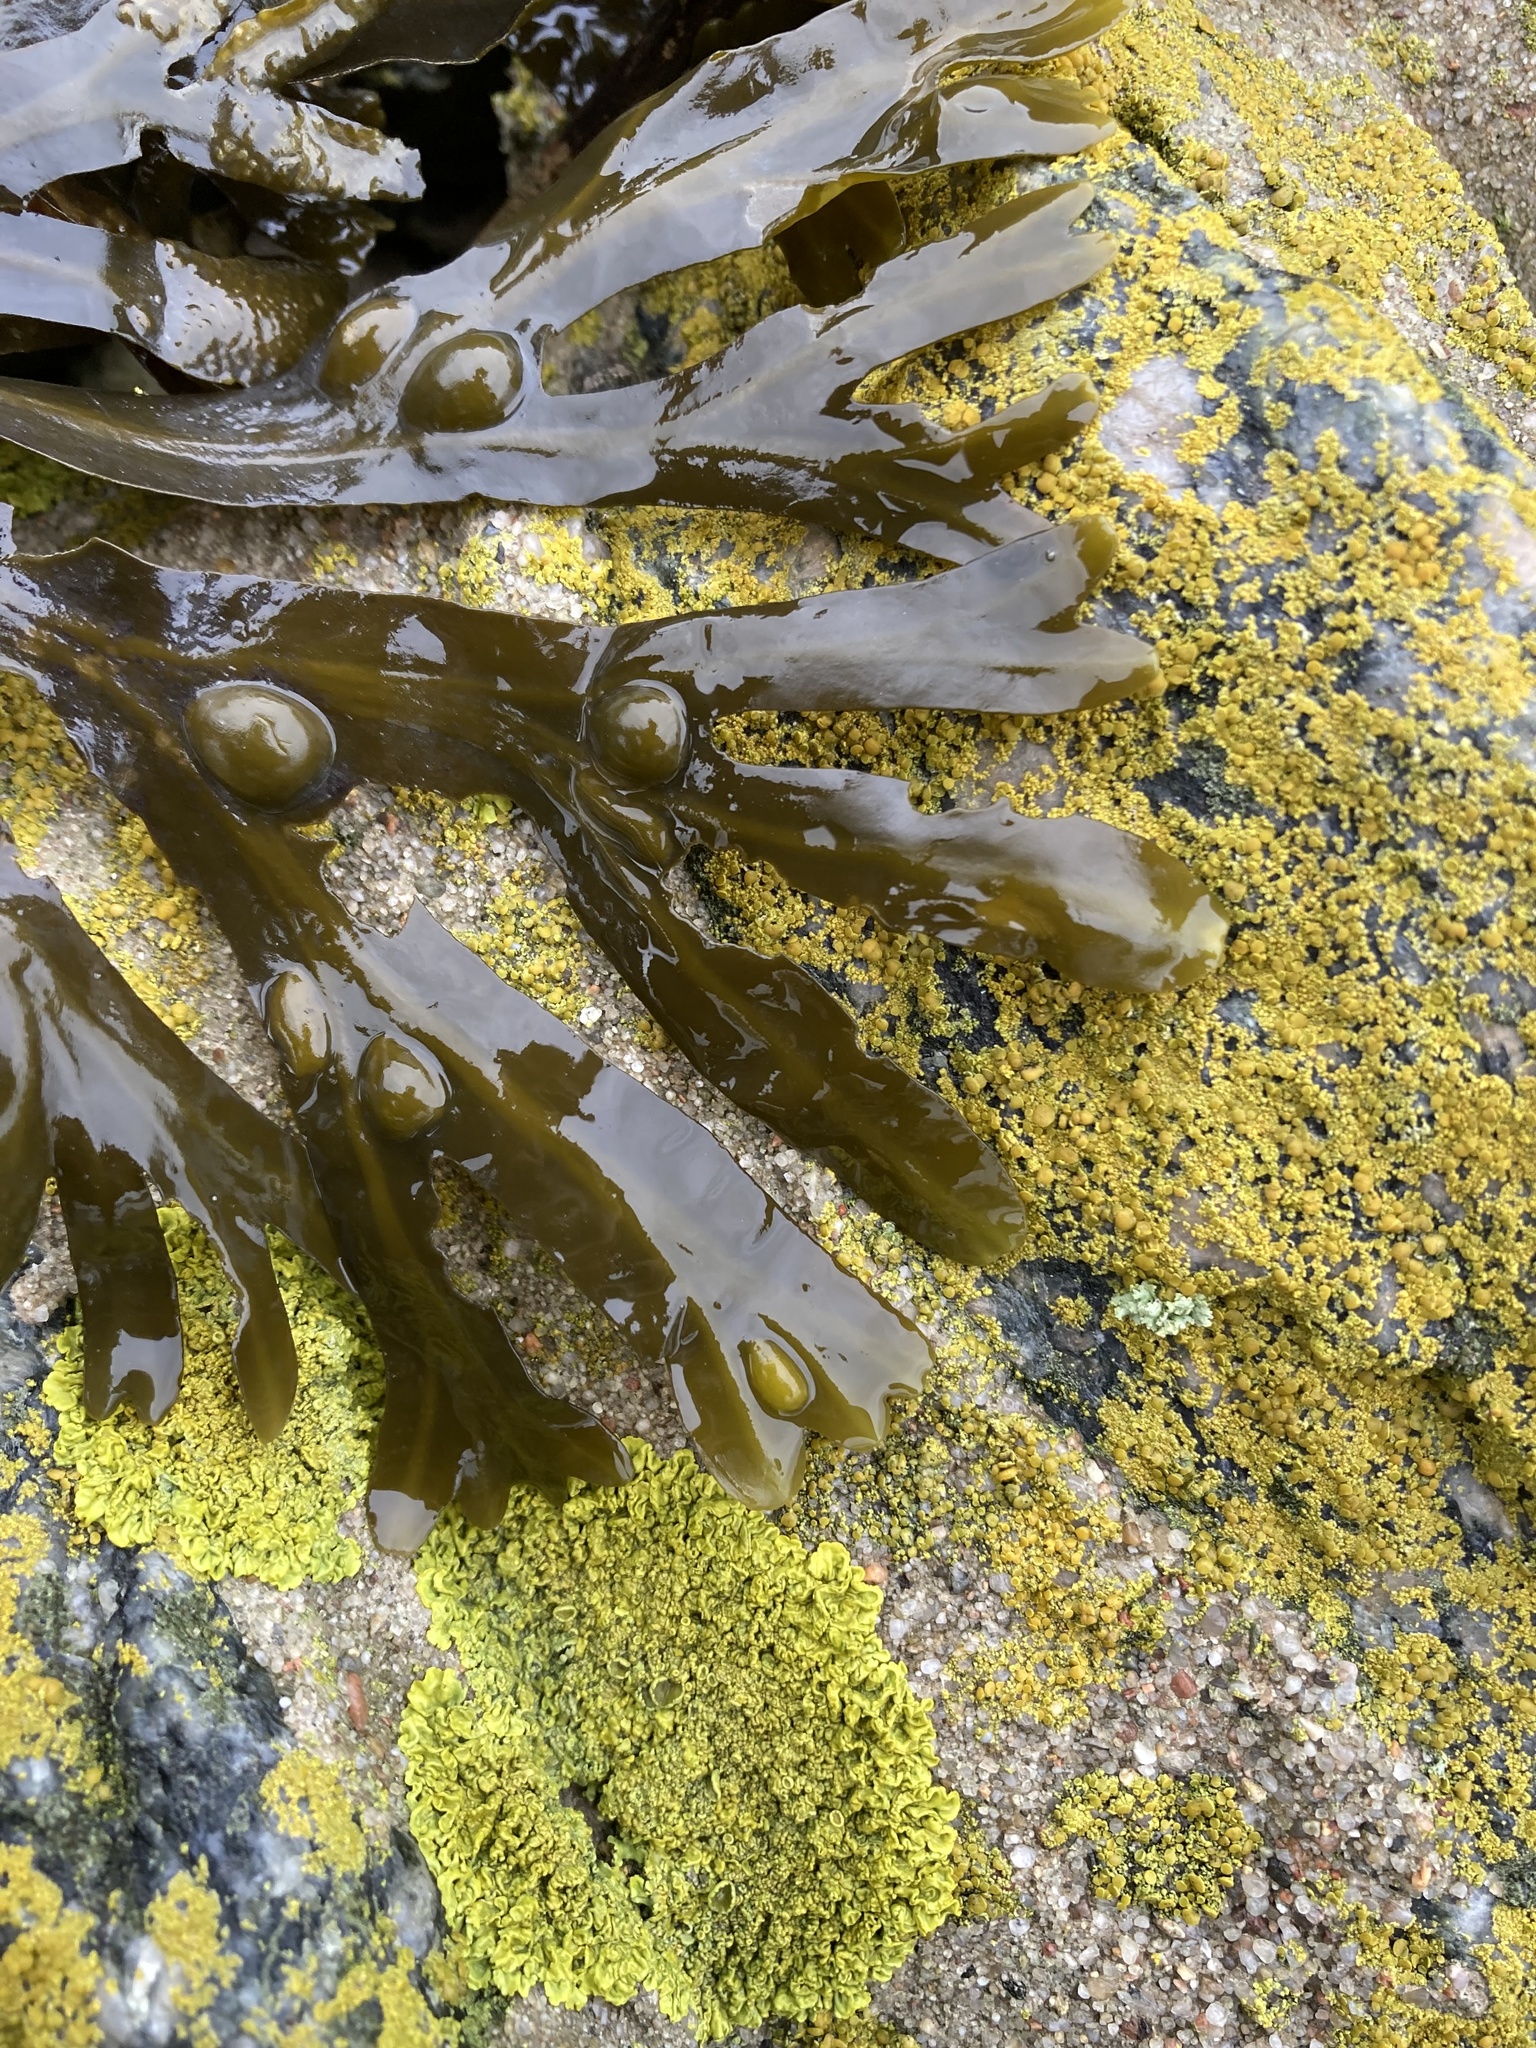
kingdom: Chromista
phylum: Ochrophyta
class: Phaeophyceae
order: Fucales
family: Fucaceae
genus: Fucus
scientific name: Fucus vesiculosus
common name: Bladder wrack
